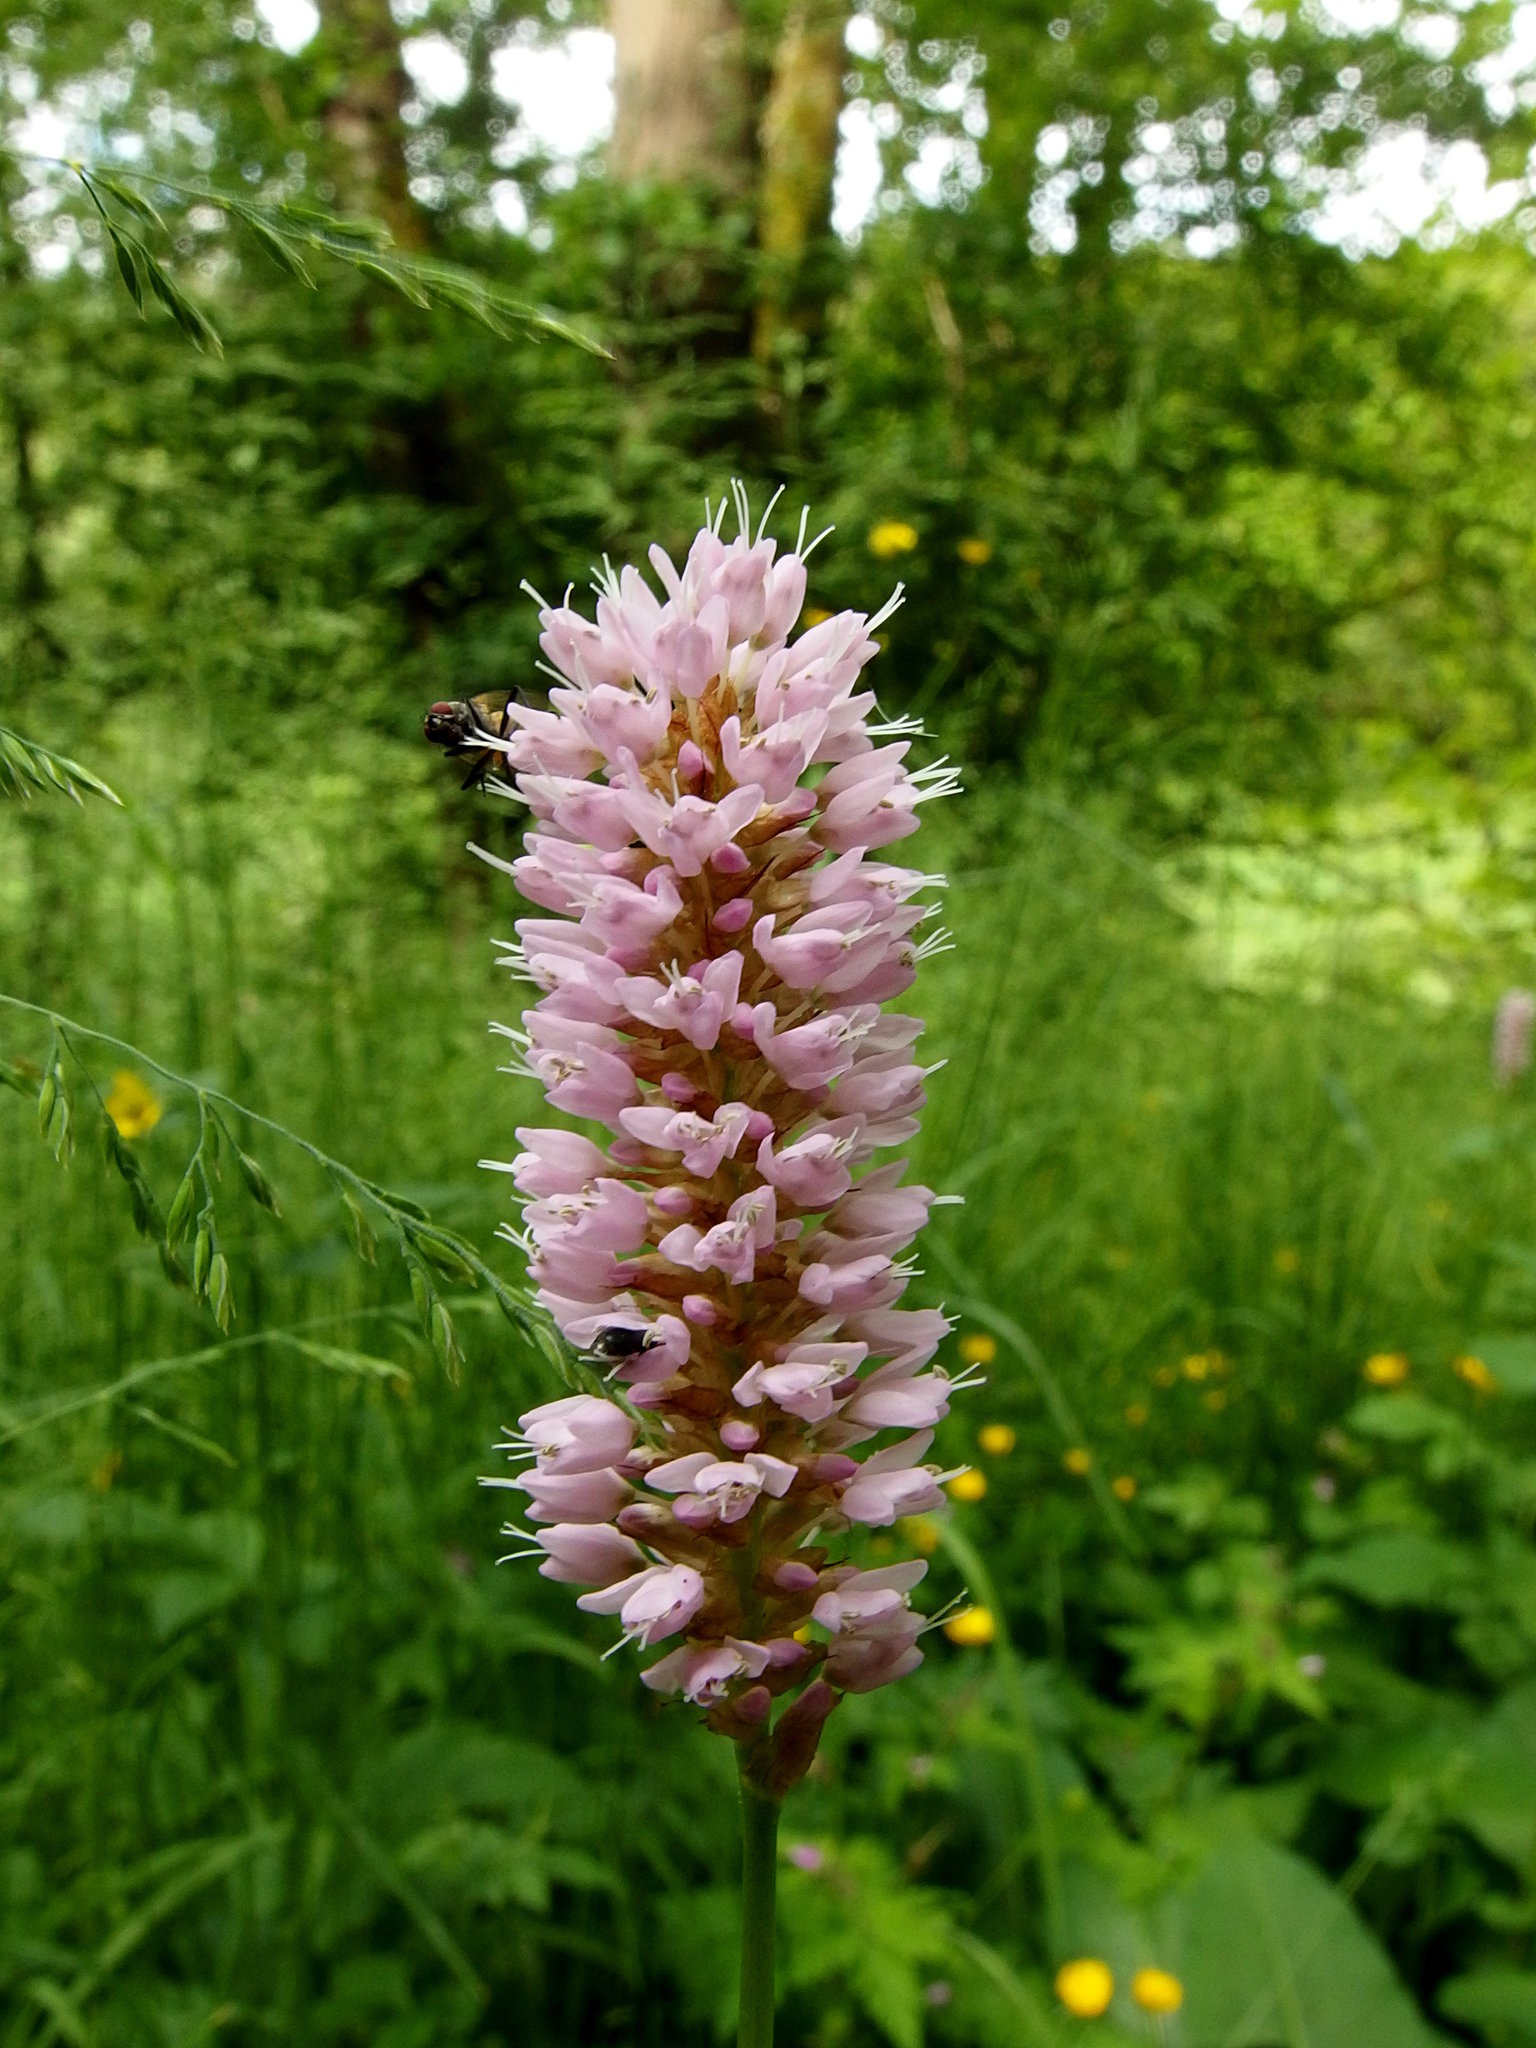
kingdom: Plantae
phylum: Tracheophyta
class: Magnoliopsida
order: Caryophyllales
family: Polygonaceae
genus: Bistorta
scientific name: Bistorta officinalis
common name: Common bistort
